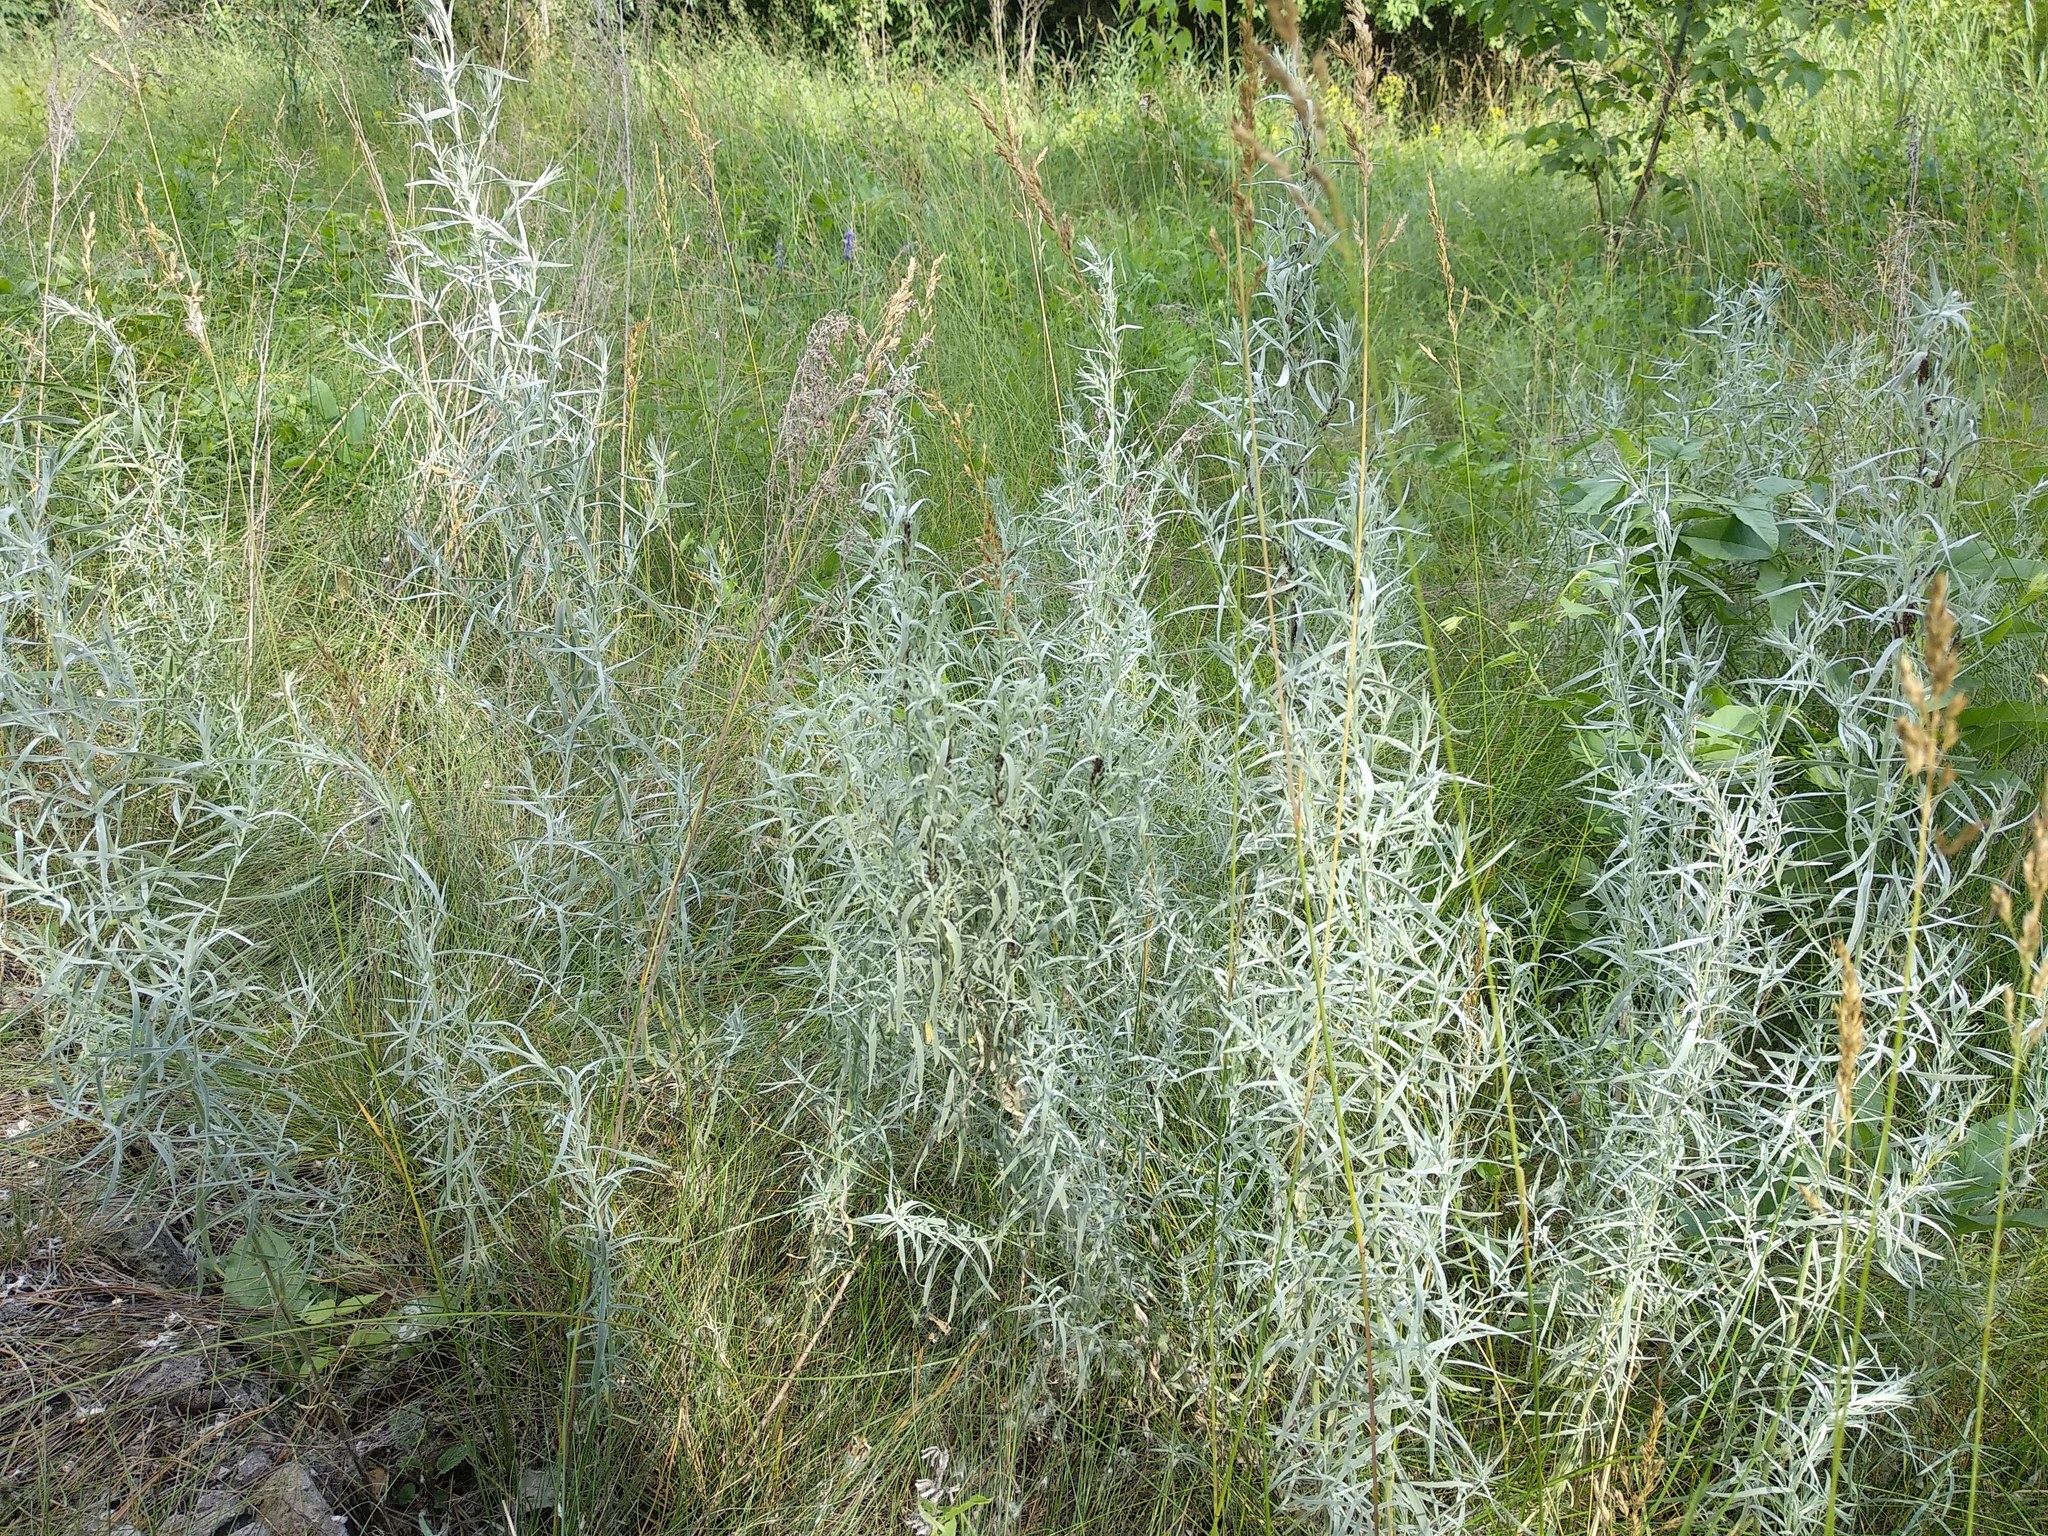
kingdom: Plantae
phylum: Tracheophyta
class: Magnoliopsida
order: Asterales
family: Asteraceae
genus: Artemisia
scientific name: Artemisia glauca
